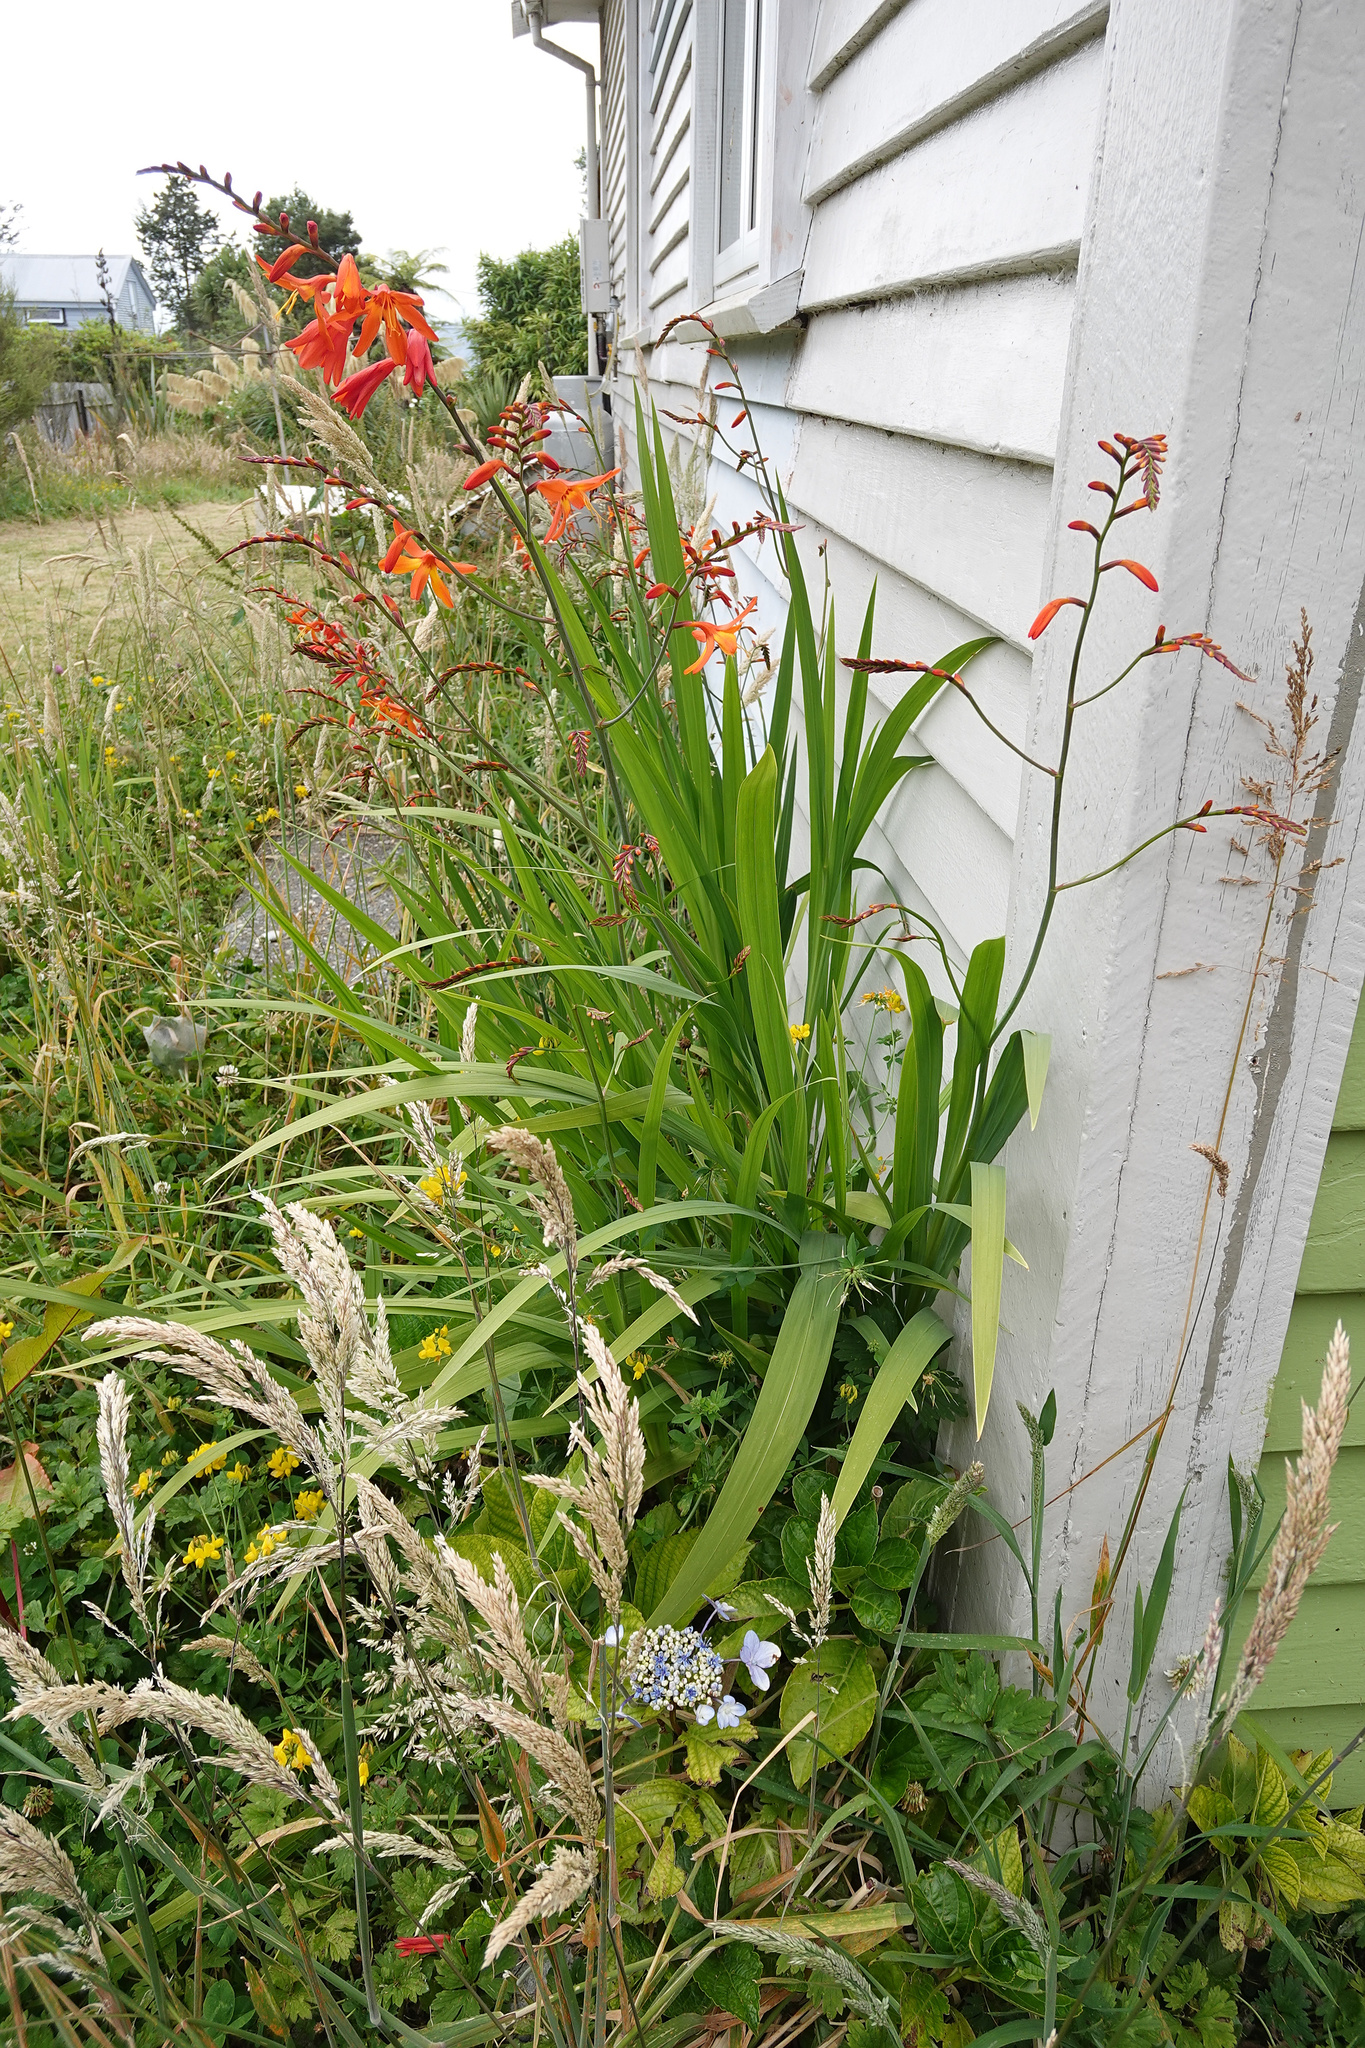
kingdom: Plantae
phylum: Tracheophyta
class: Liliopsida
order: Asparagales
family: Iridaceae
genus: Crocosmia
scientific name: Crocosmia crocosmiiflora
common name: Montbretia
